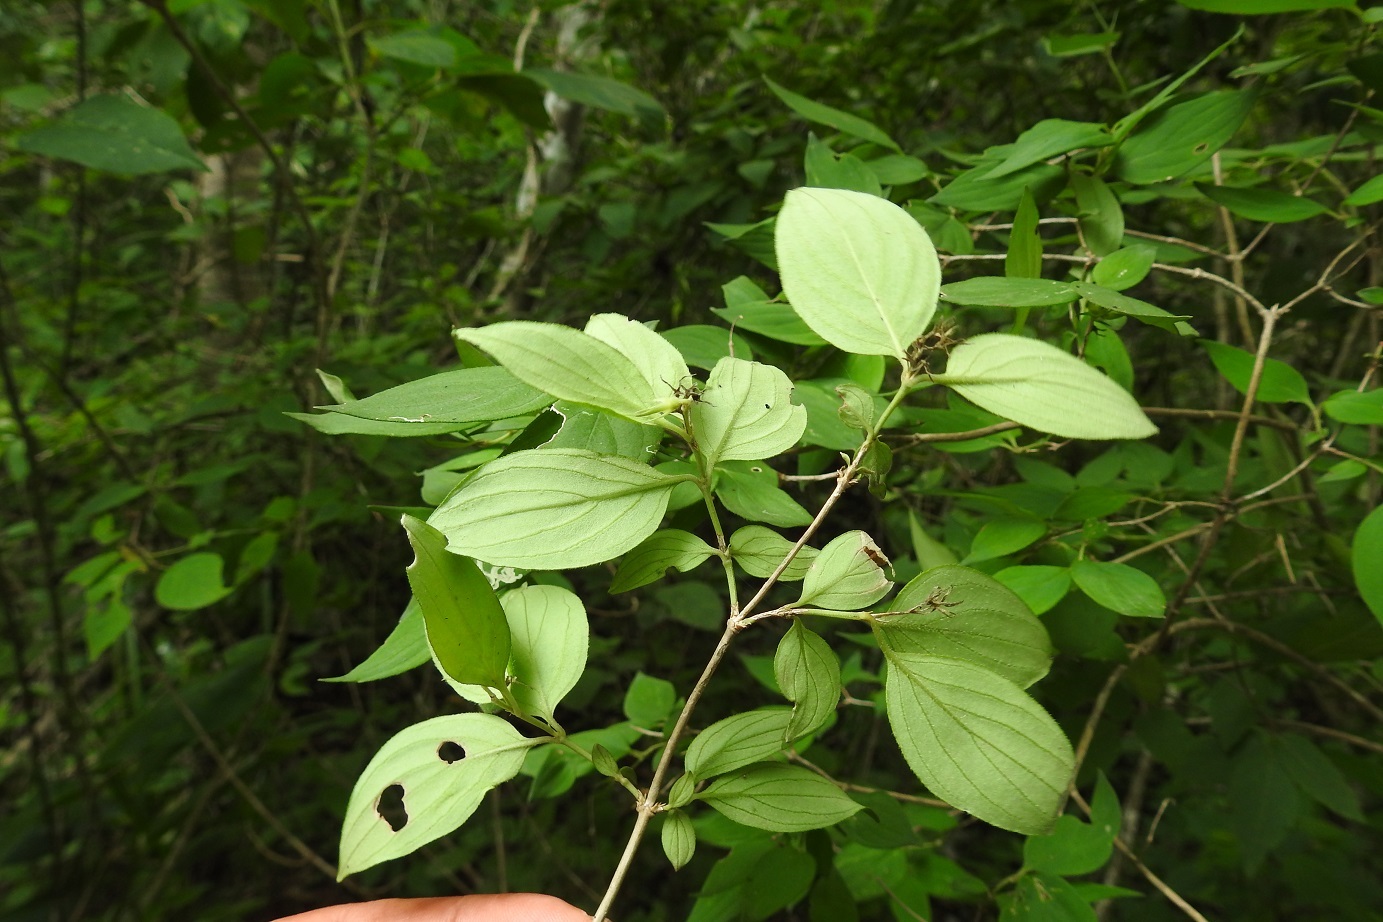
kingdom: Plantae
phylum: Tracheophyta
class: Magnoliopsida
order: Gentianales
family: Rubiaceae
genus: Bouvardia
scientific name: Bouvardia dictyoneura
